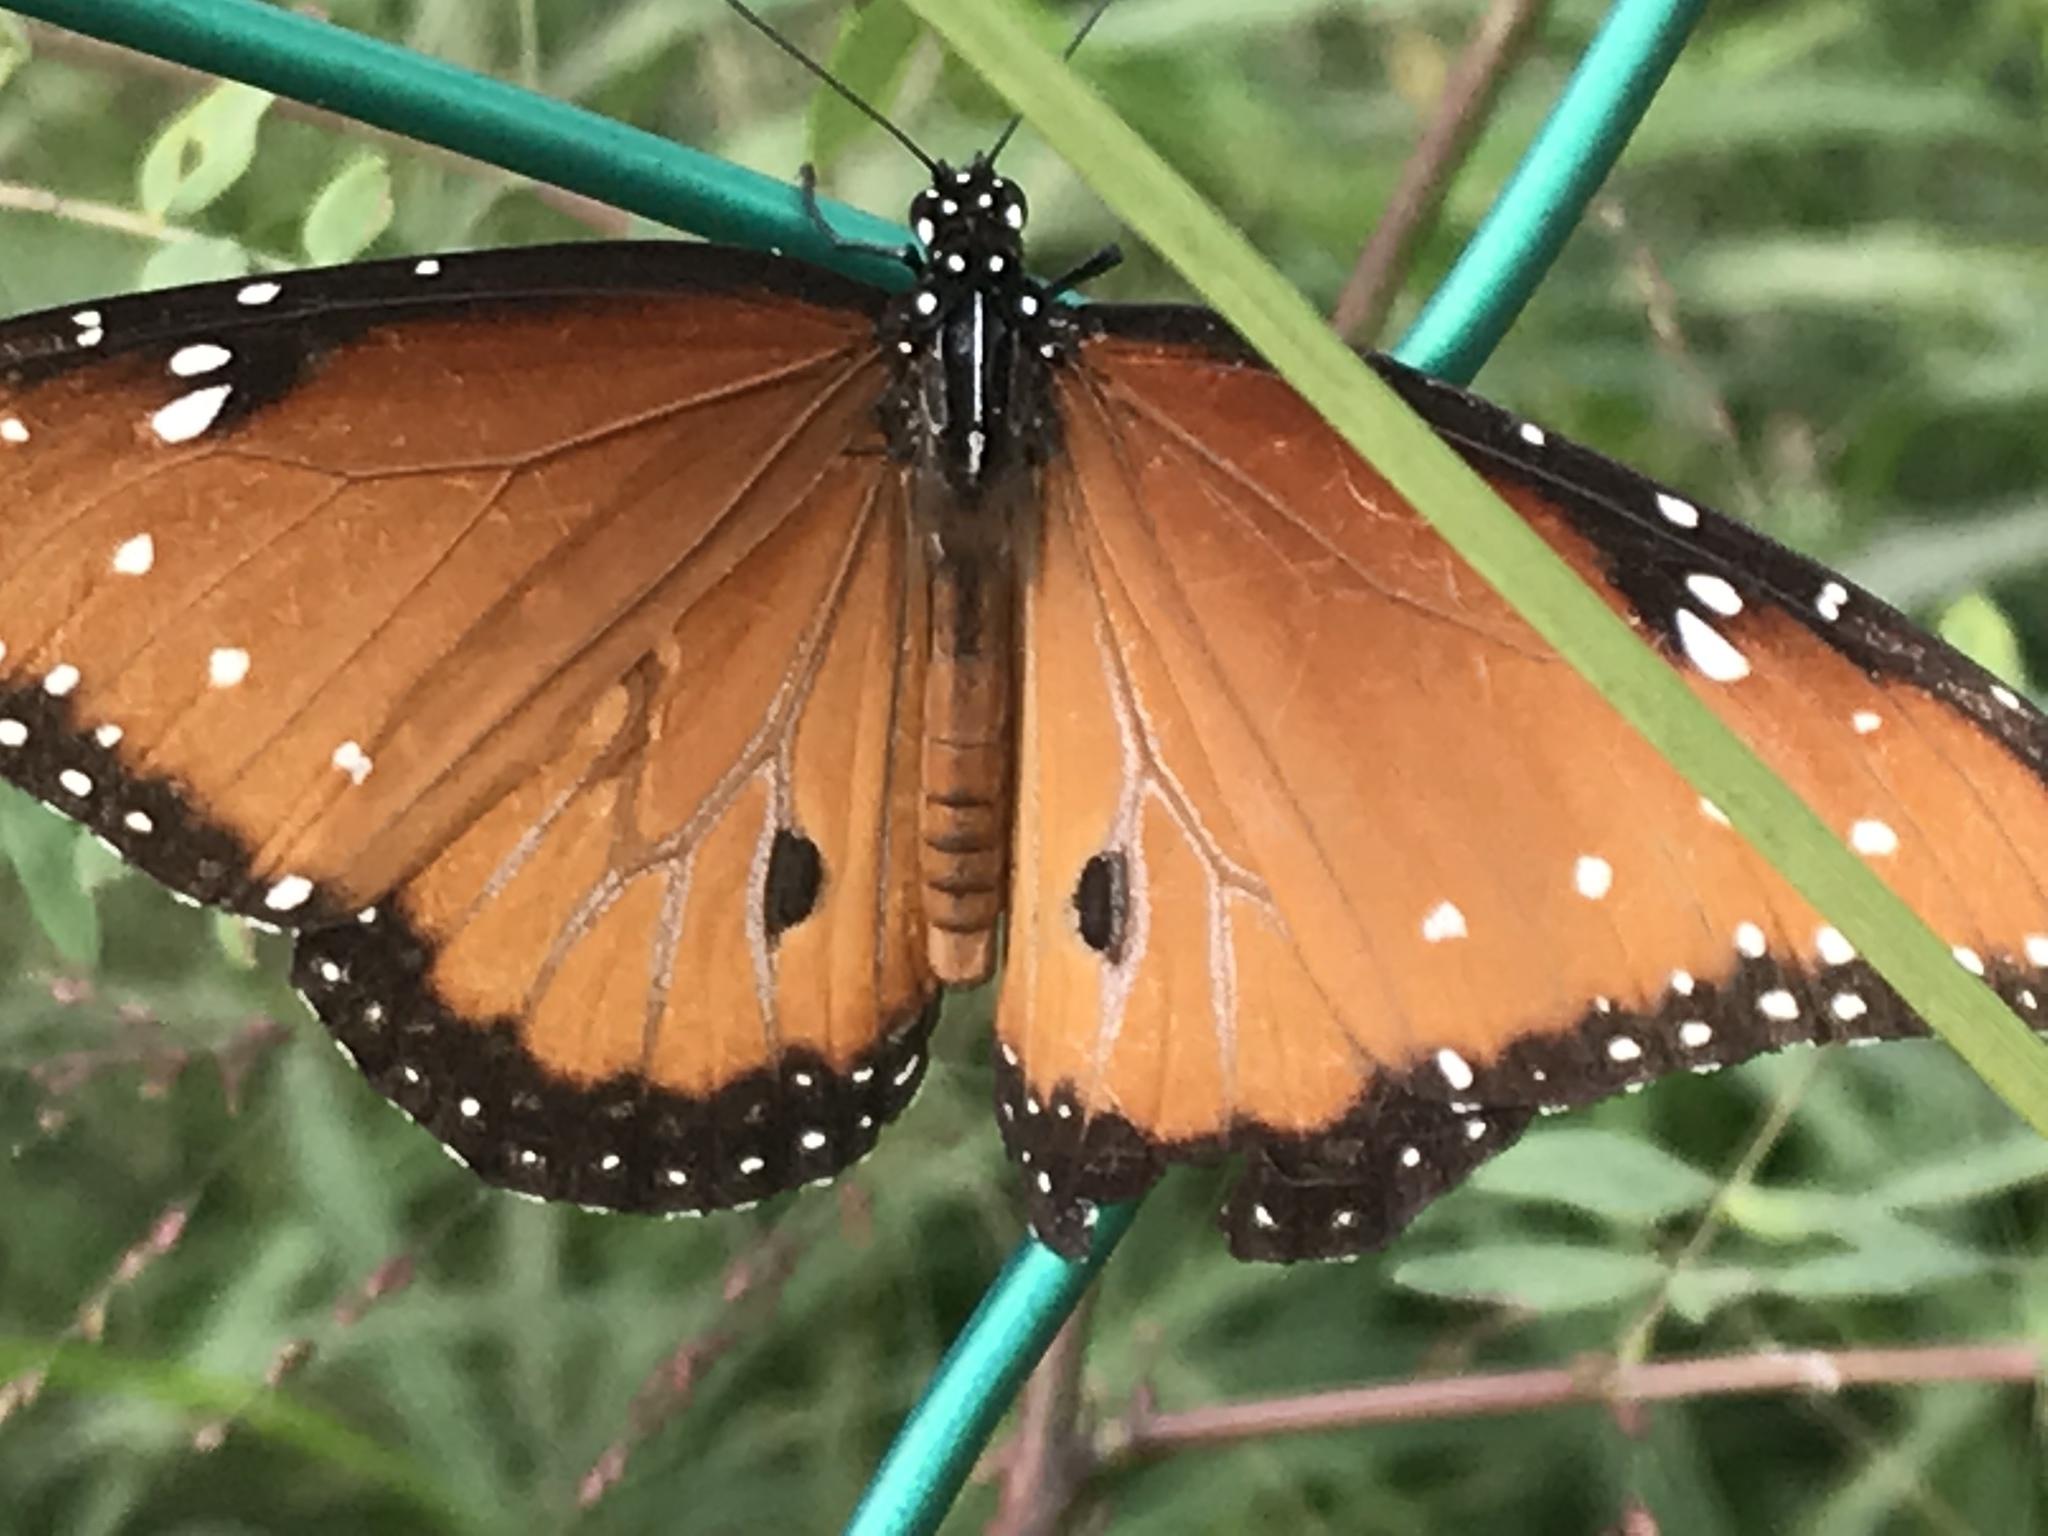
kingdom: Animalia
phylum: Arthropoda
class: Insecta
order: Lepidoptera
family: Nymphalidae
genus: Danaus
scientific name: Danaus gilippus
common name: Queen
